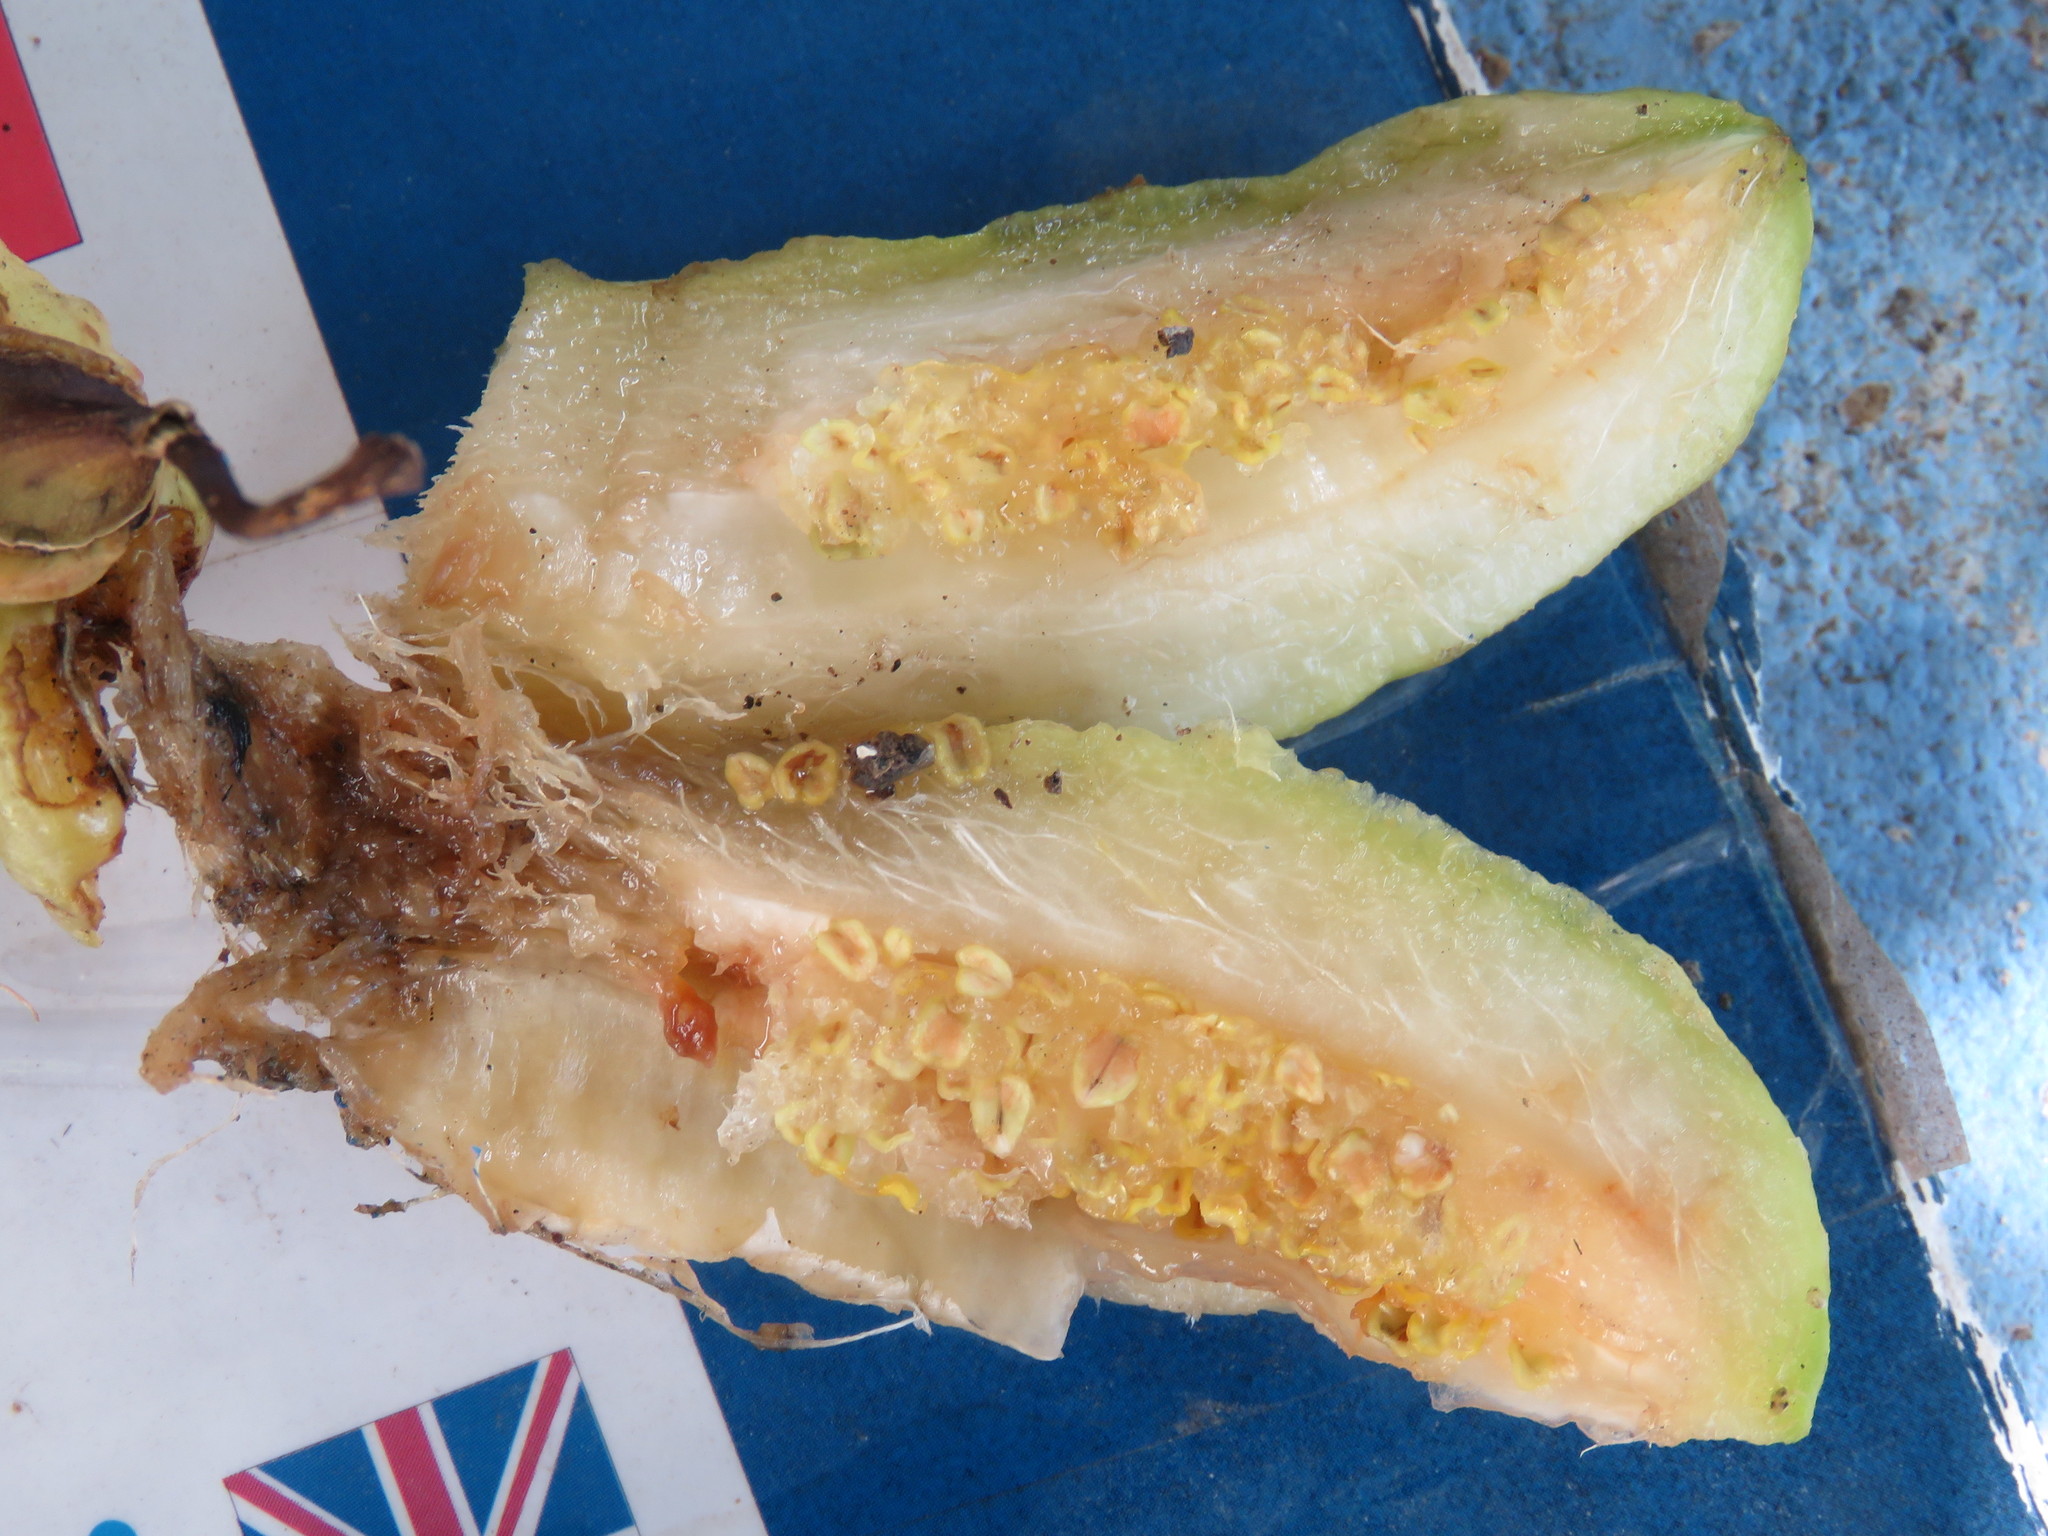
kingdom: Plantae
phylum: Tracheophyta
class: Magnoliopsida
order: Lamiales
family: Bignoniaceae
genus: Parmentiera
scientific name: Parmentiera aculeata
